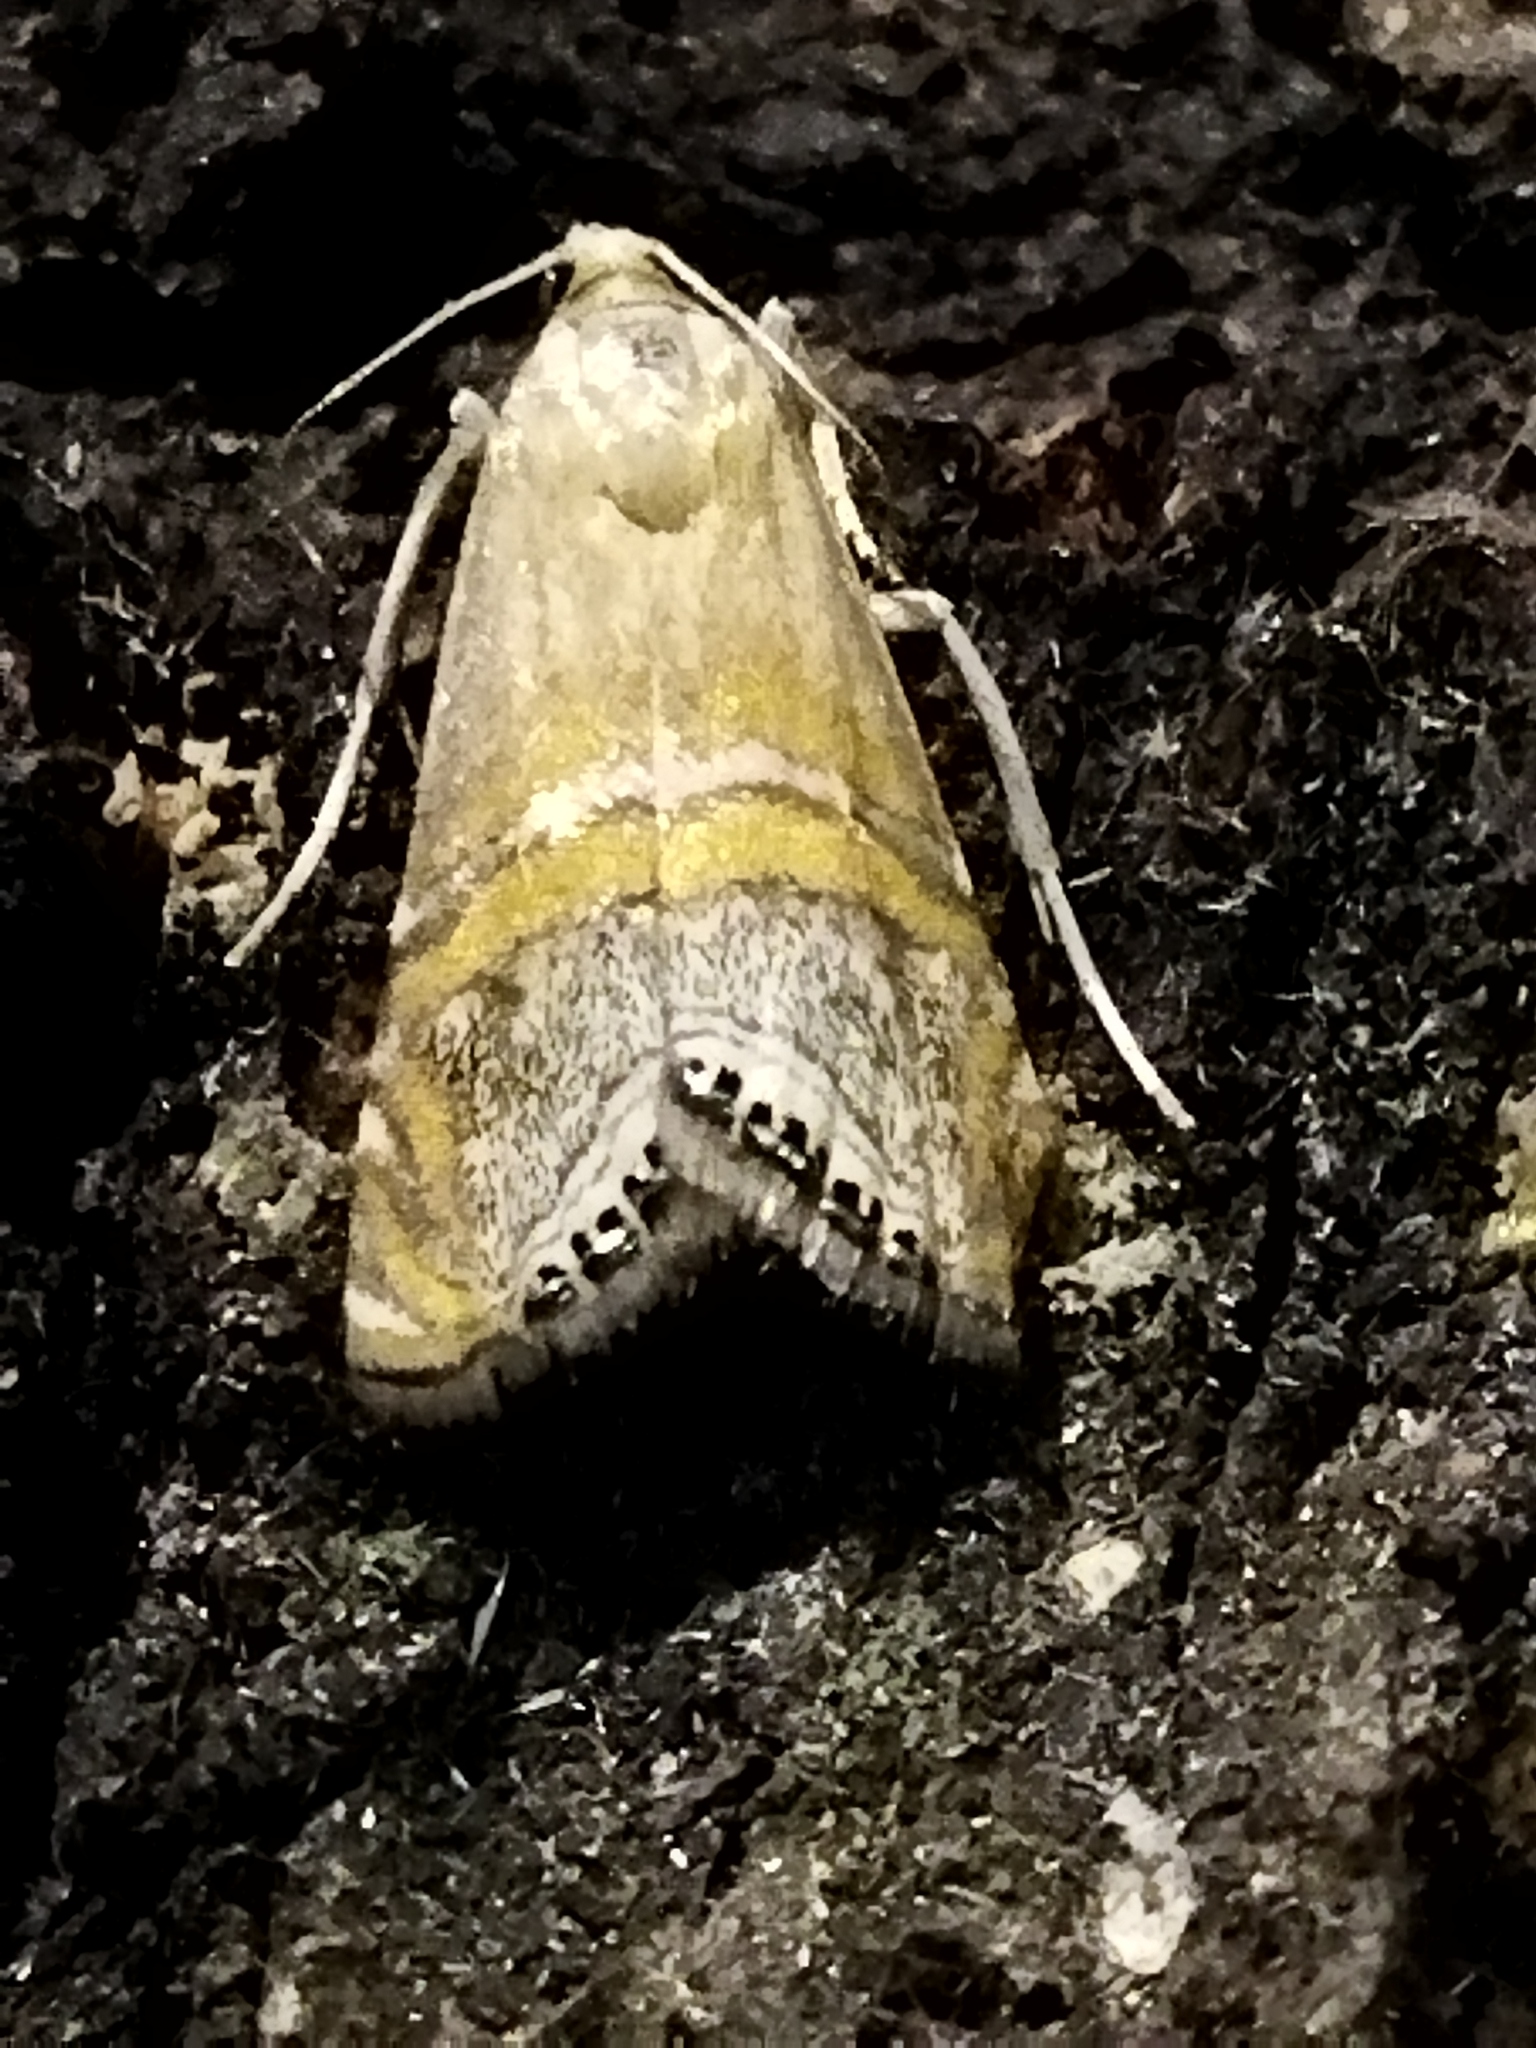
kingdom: Animalia
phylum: Arthropoda
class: Insecta
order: Lepidoptera
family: Crambidae
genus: Euchromius
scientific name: Euchromius bella
